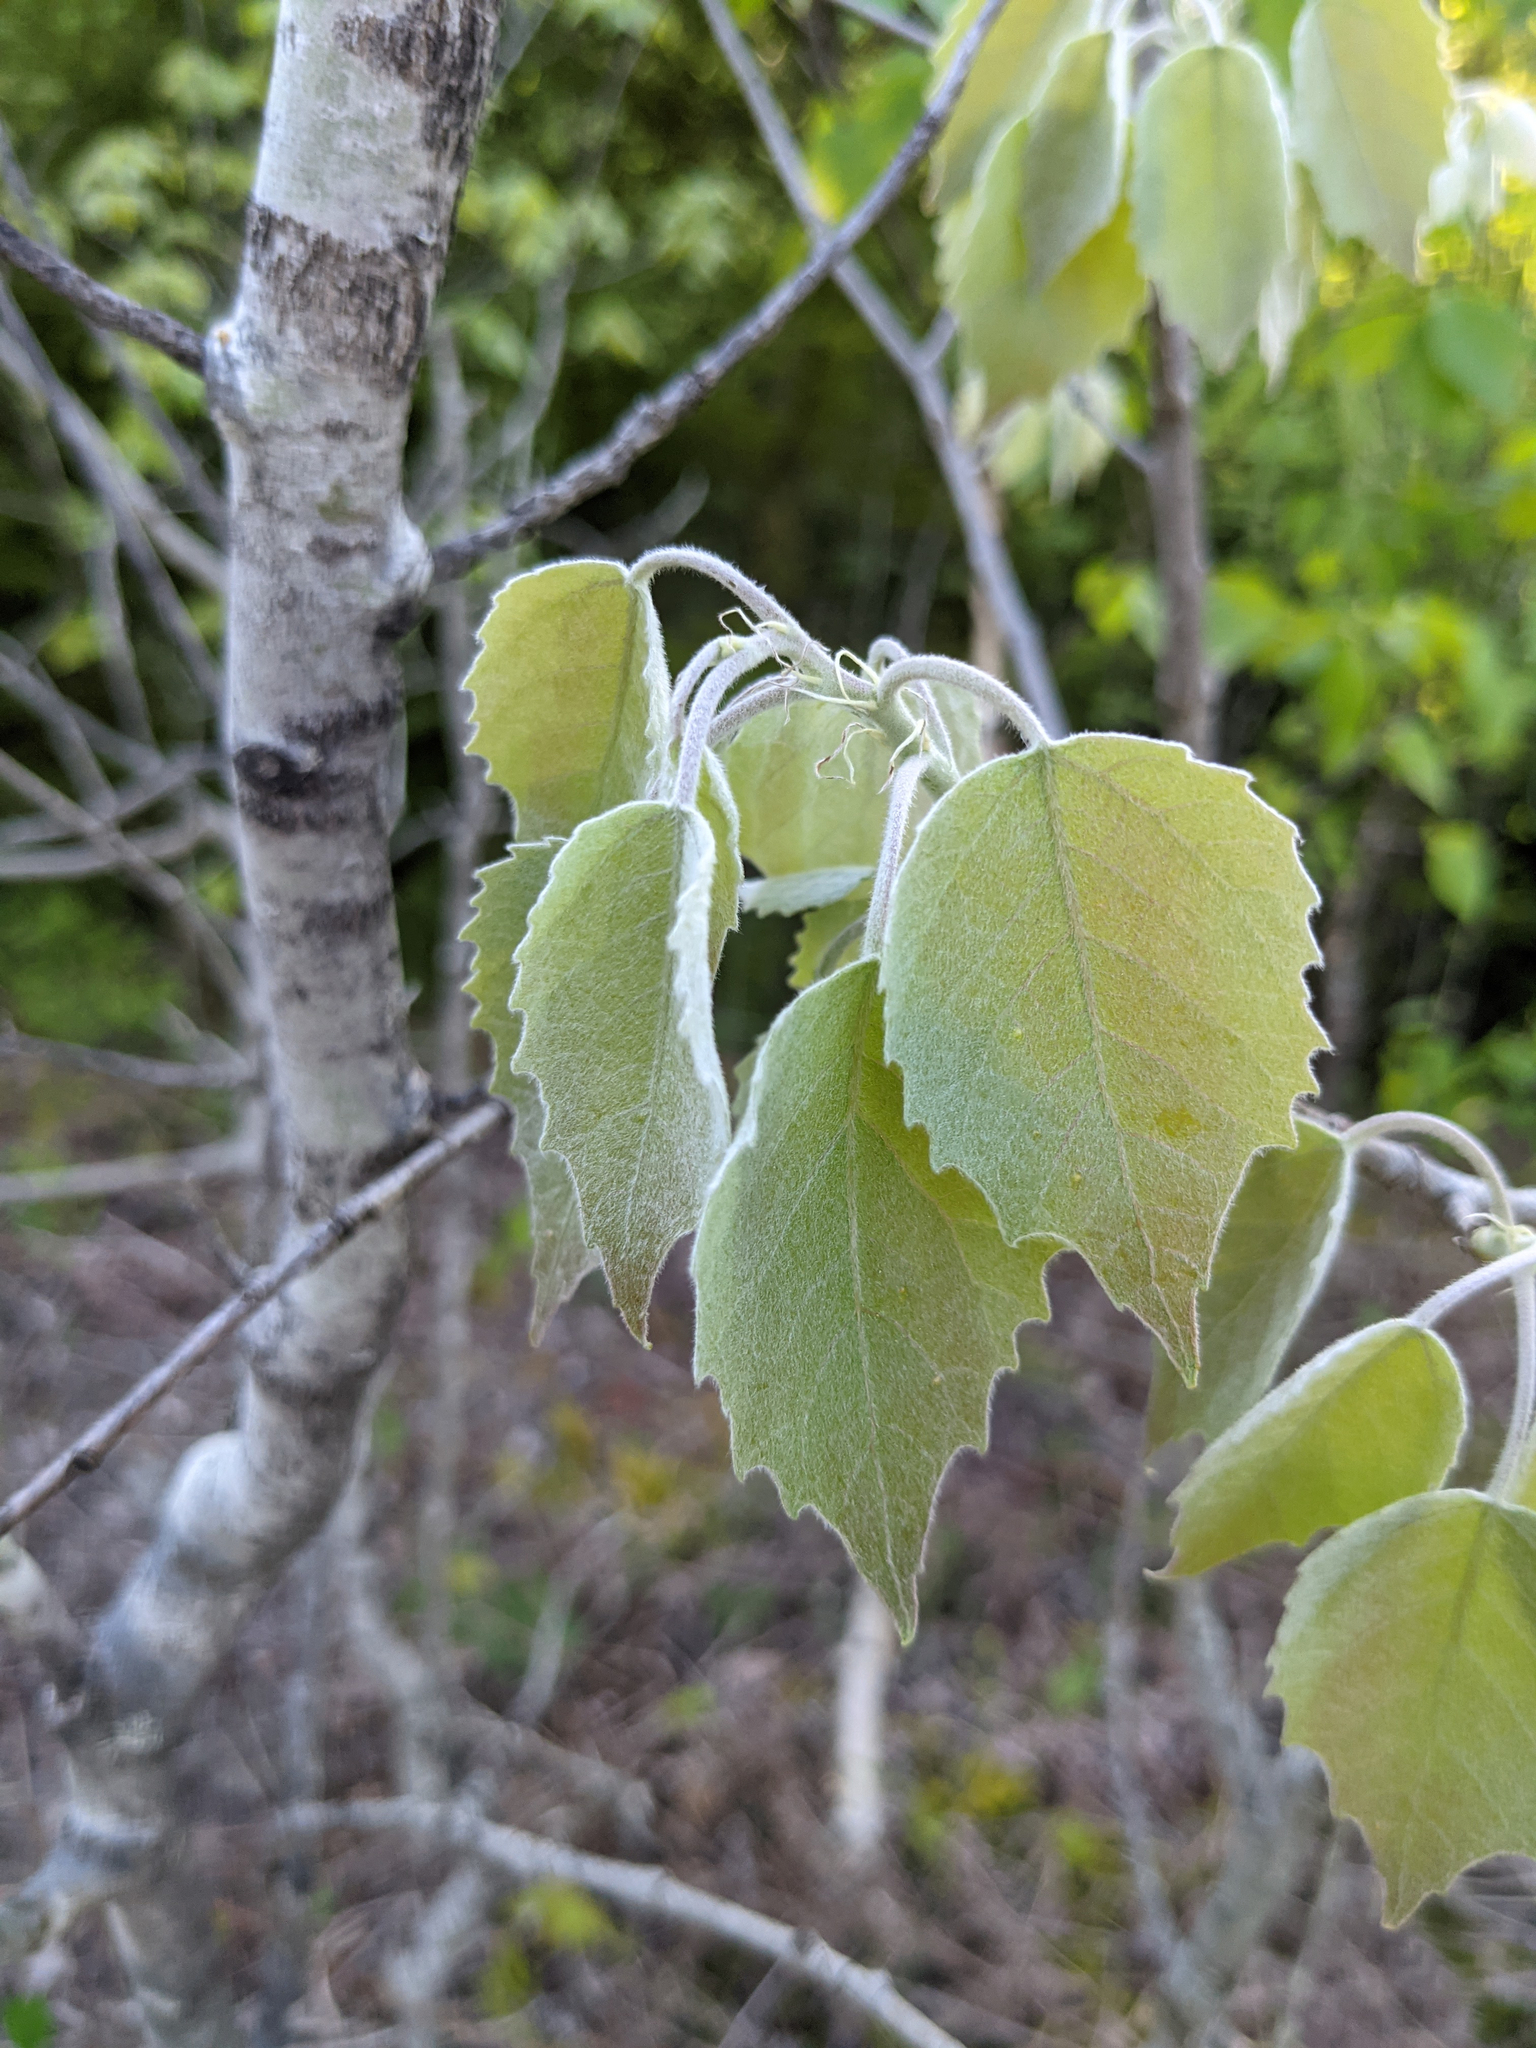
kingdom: Plantae
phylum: Tracheophyta
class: Magnoliopsida
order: Malpighiales
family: Salicaceae
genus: Populus
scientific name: Populus grandidentata
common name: Bigtooth aspen
